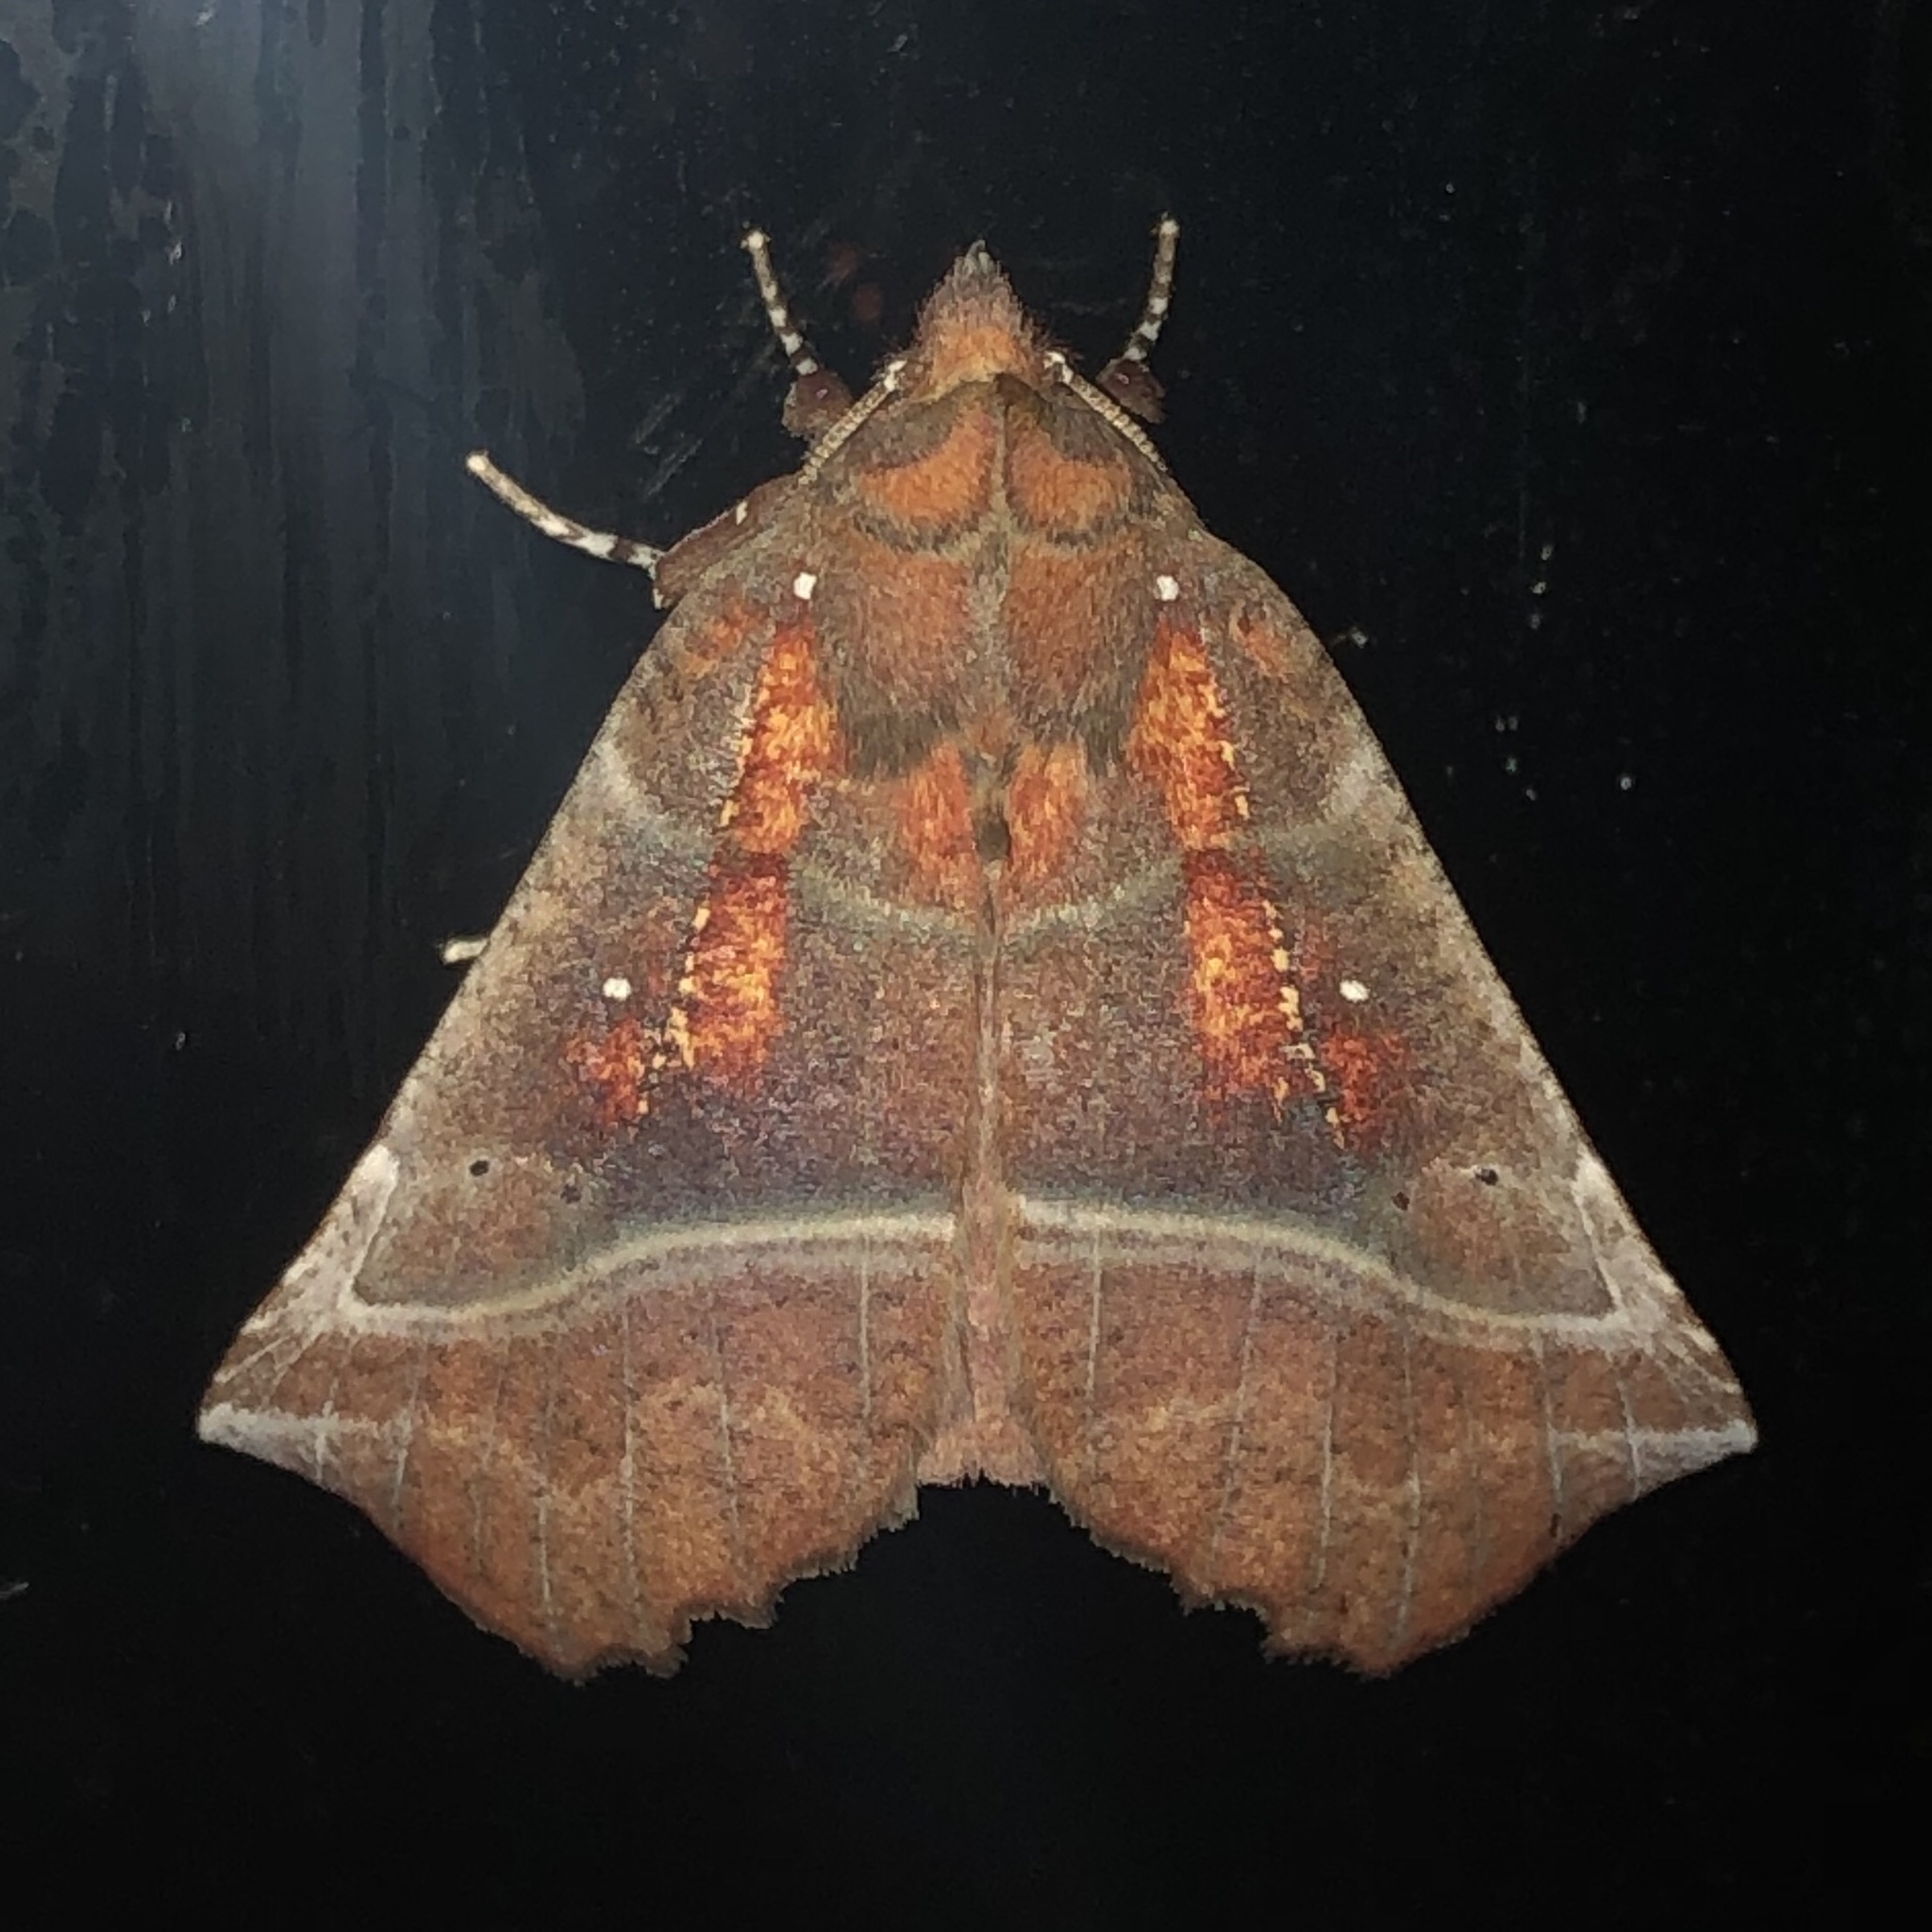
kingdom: Animalia
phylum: Arthropoda
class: Insecta
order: Lepidoptera
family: Erebidae
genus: Scoliopteryx
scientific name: Scoliopteryx libatrix
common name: Herald
